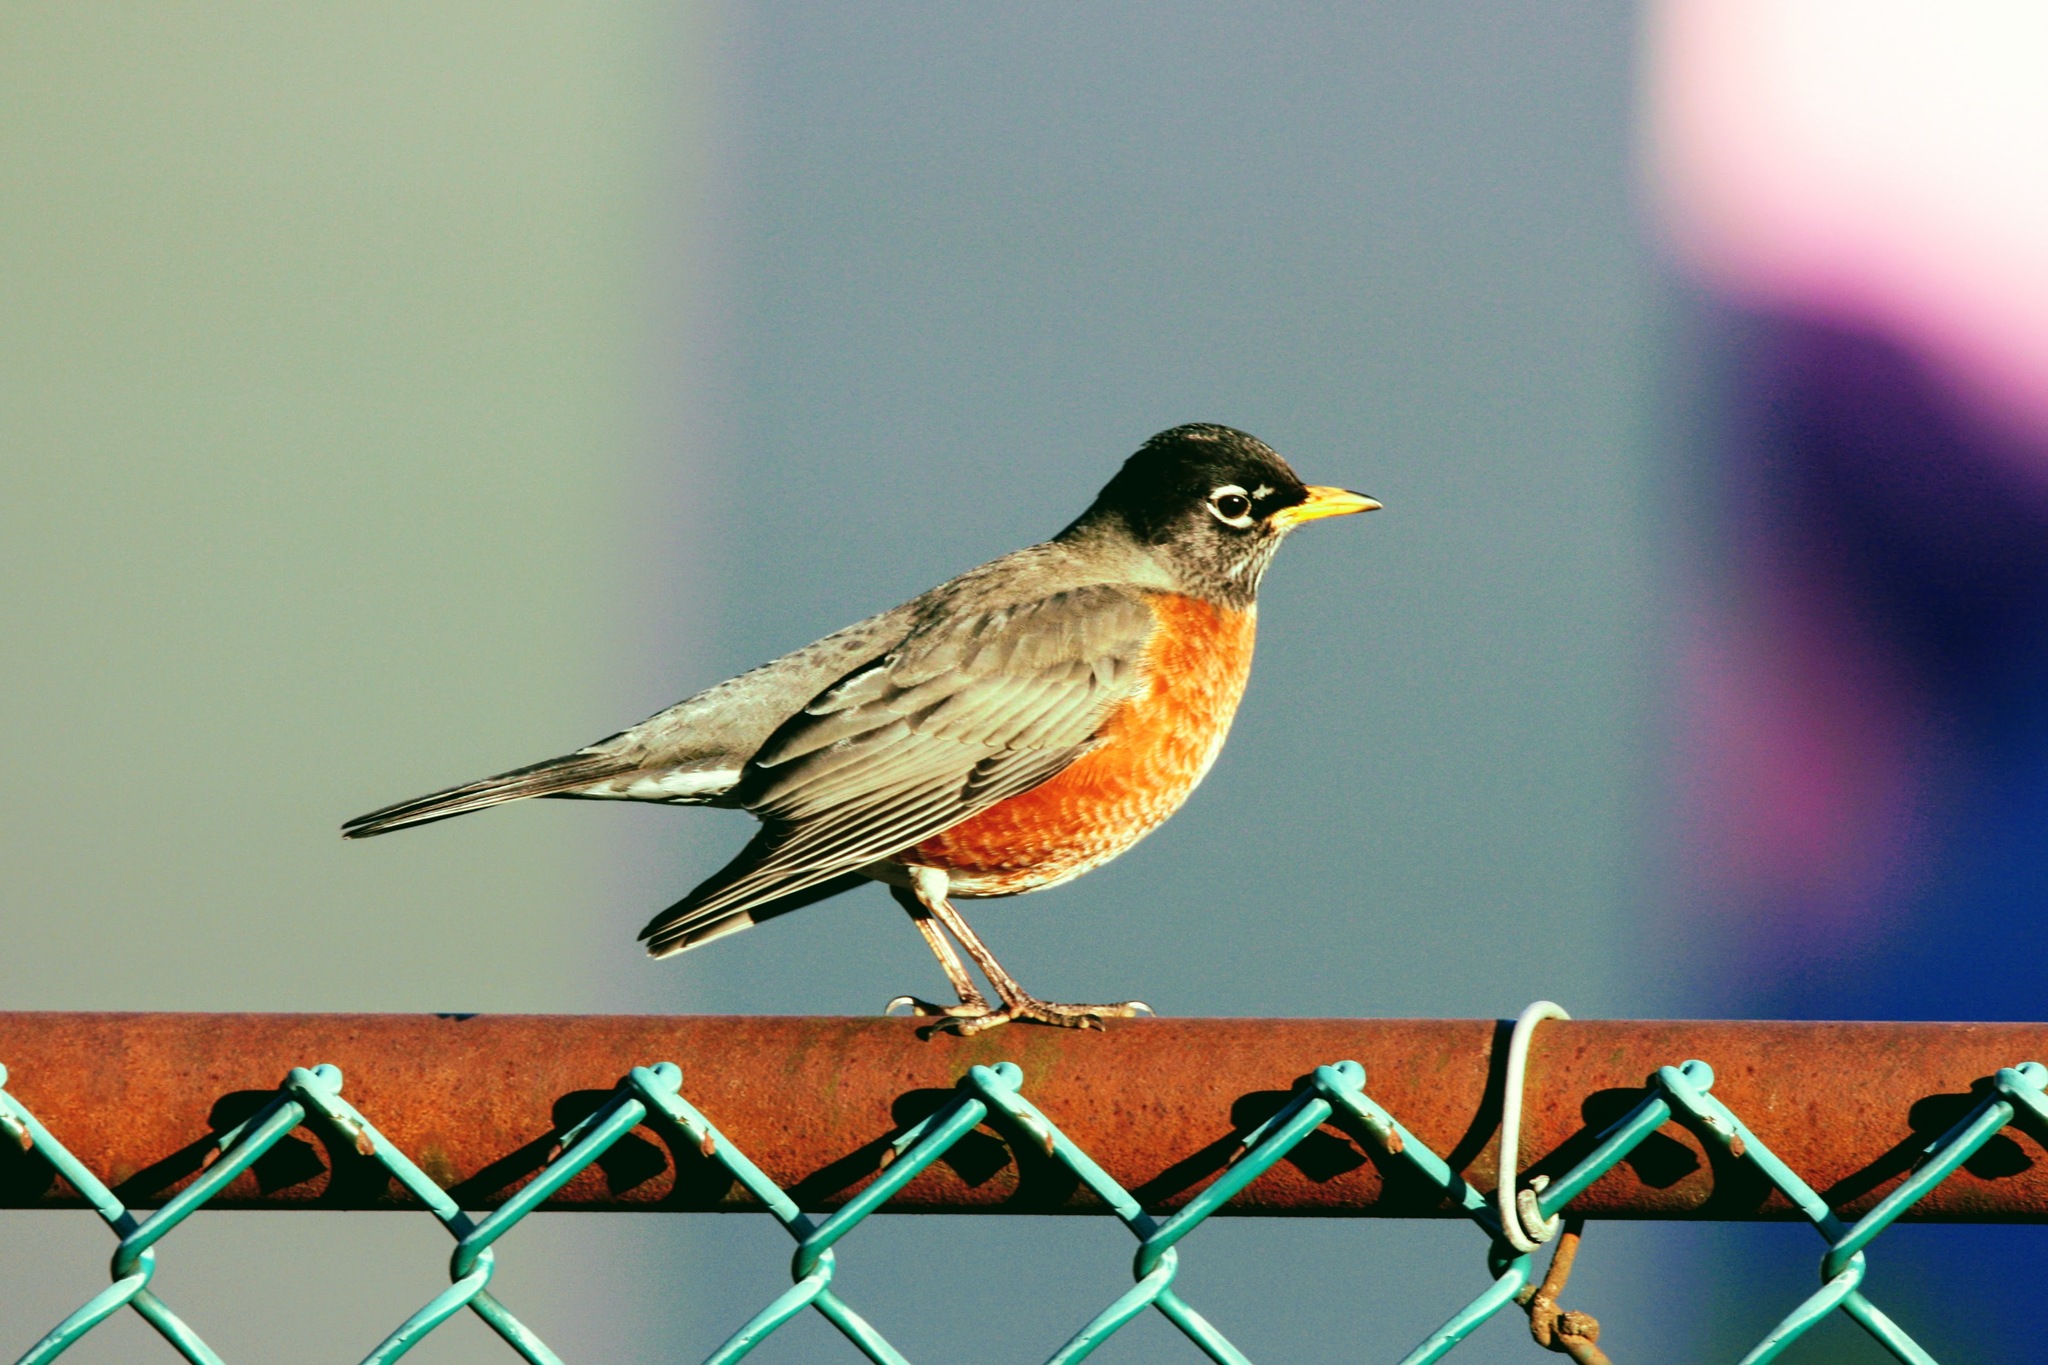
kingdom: Animalia
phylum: Chordata
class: Aves
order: Passeriformes
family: Turdidae
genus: Turdus
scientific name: Turdus migratorius
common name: American robin
